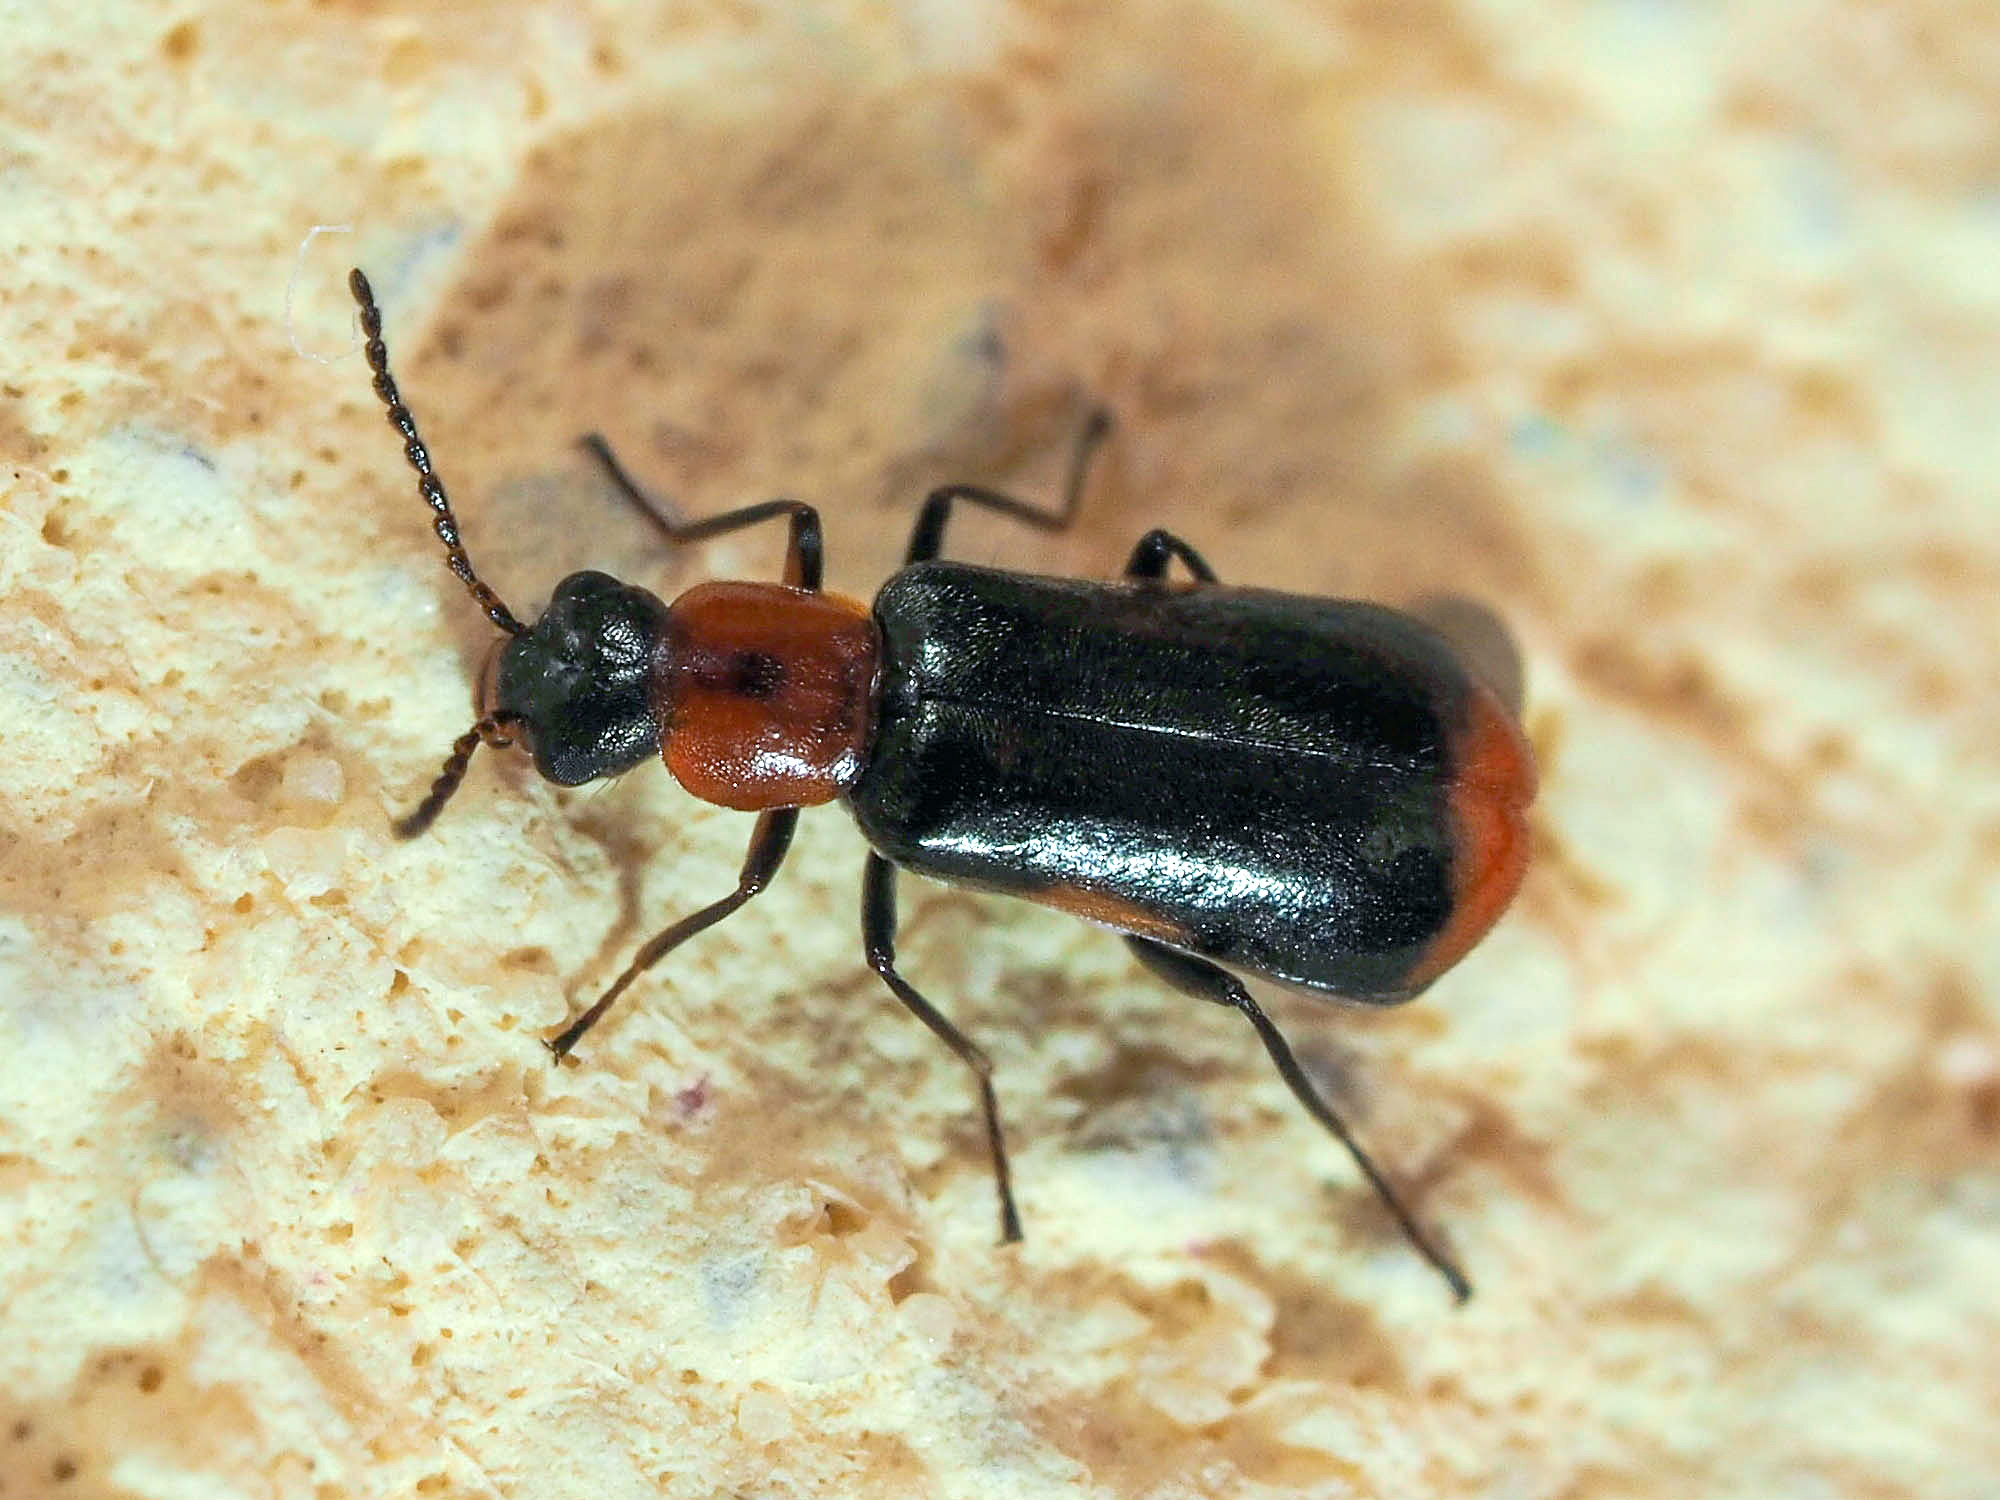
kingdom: Animalia
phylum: Arthropoda
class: Insecta
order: Coleoptera
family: Malachiidae
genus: Attalus
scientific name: Attalus minimus
